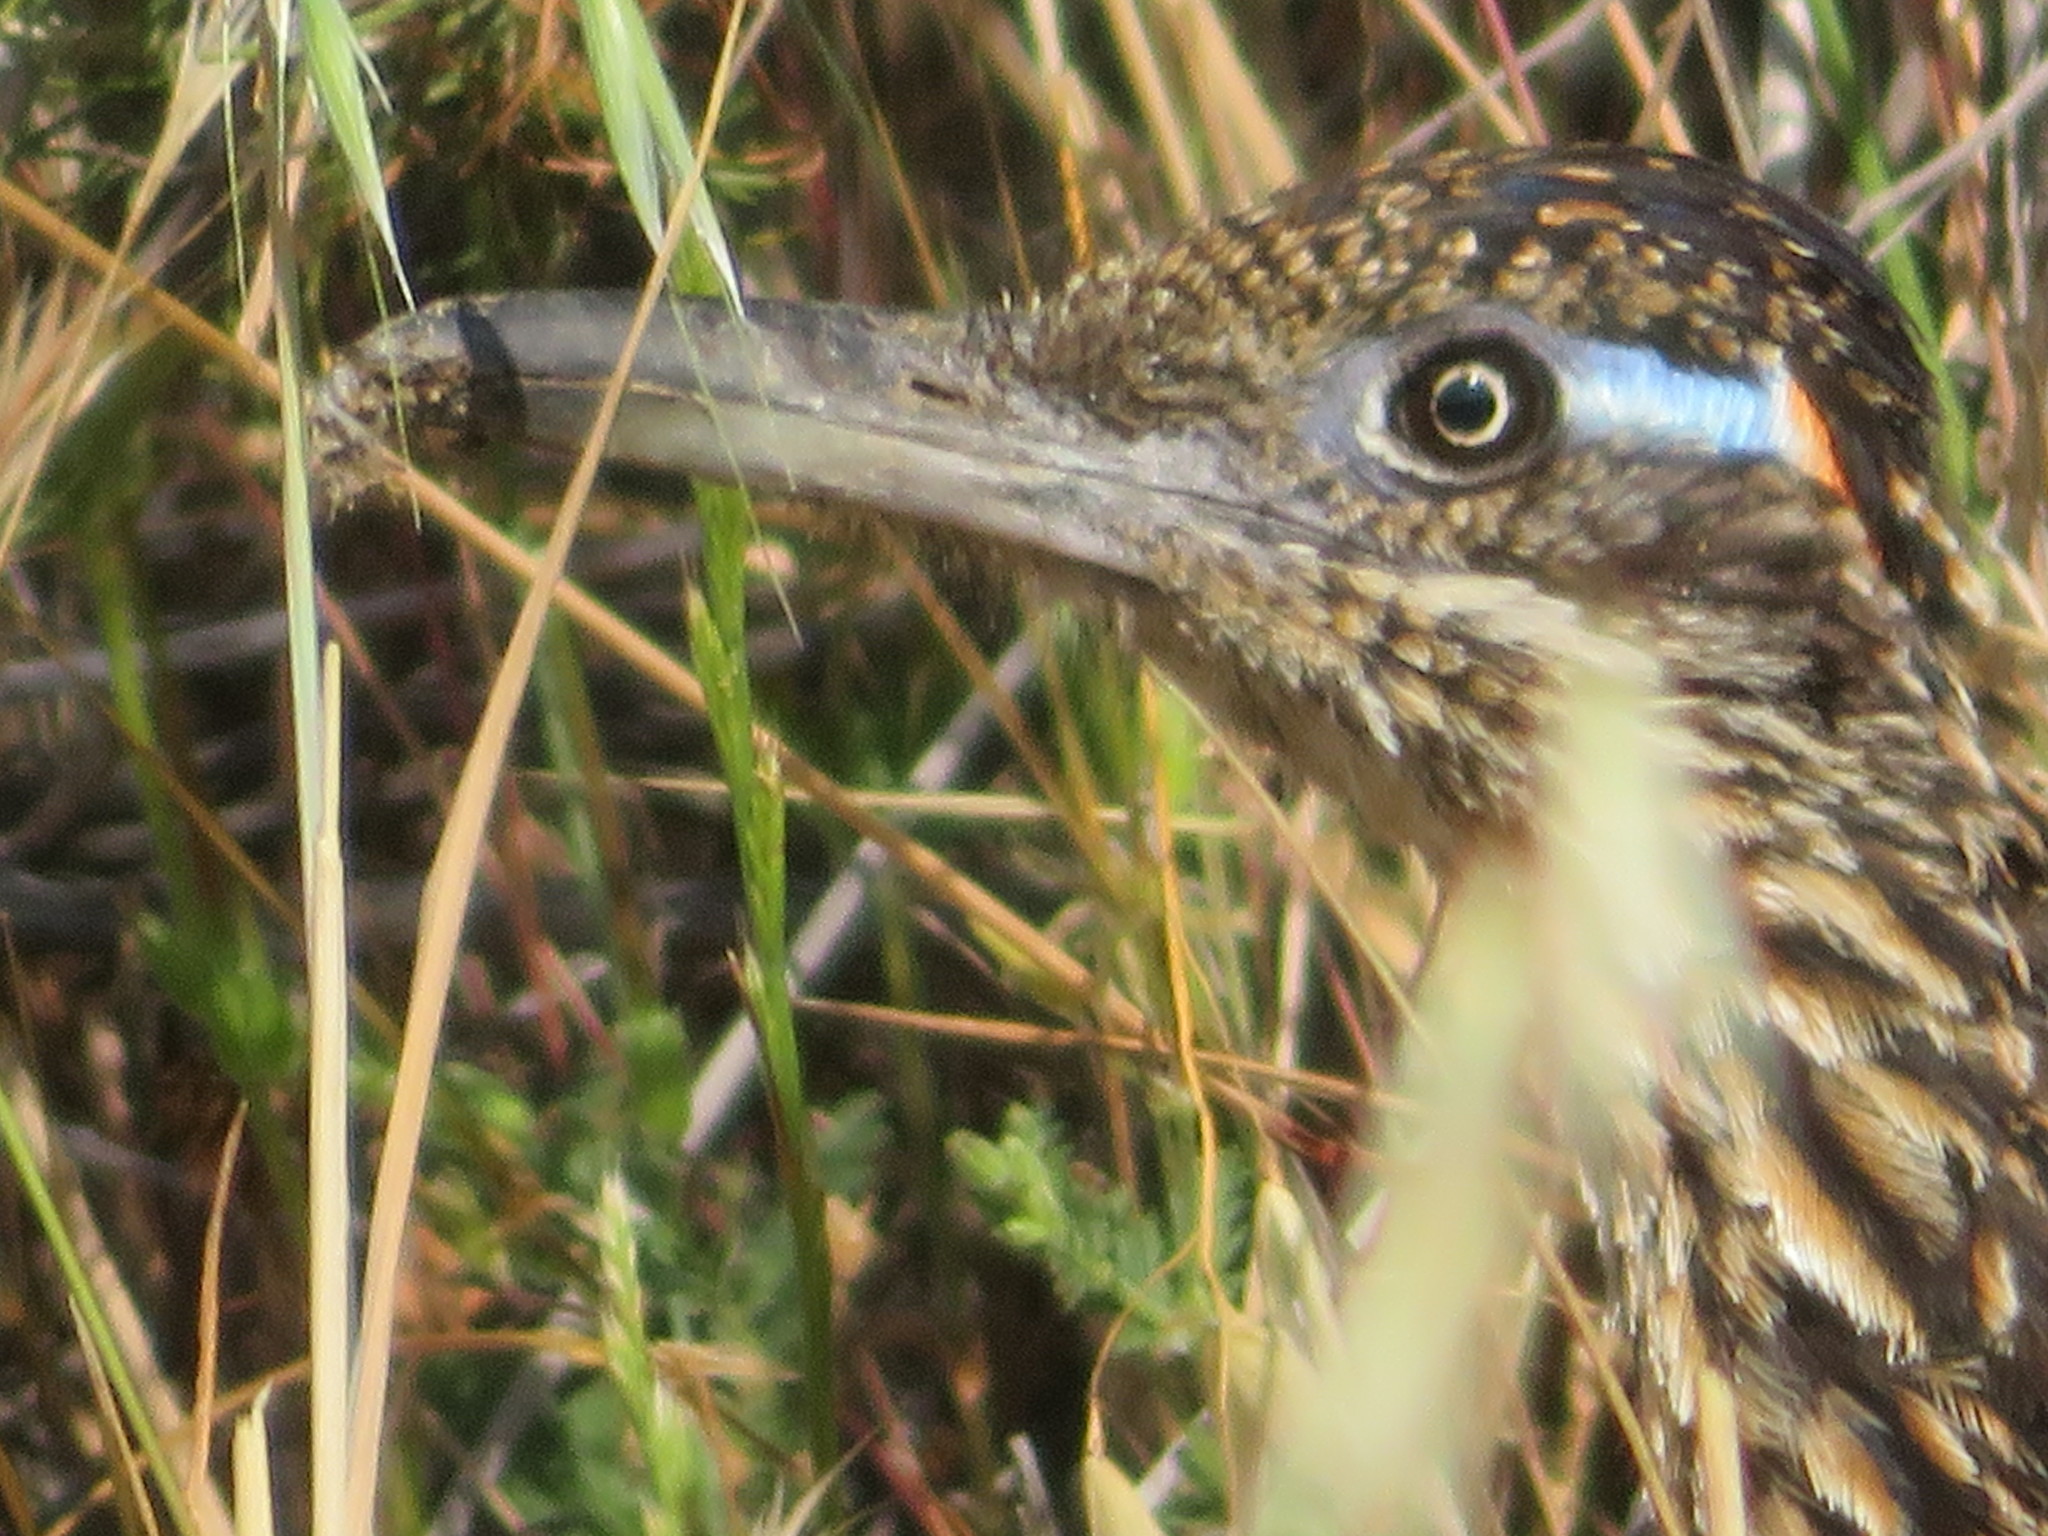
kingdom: Animalia
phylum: Chordata
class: Aves
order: Cuculiformes
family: Cuculidae
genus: Geococcyx
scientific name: Geococcyx californianus
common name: Greater roadrunner
